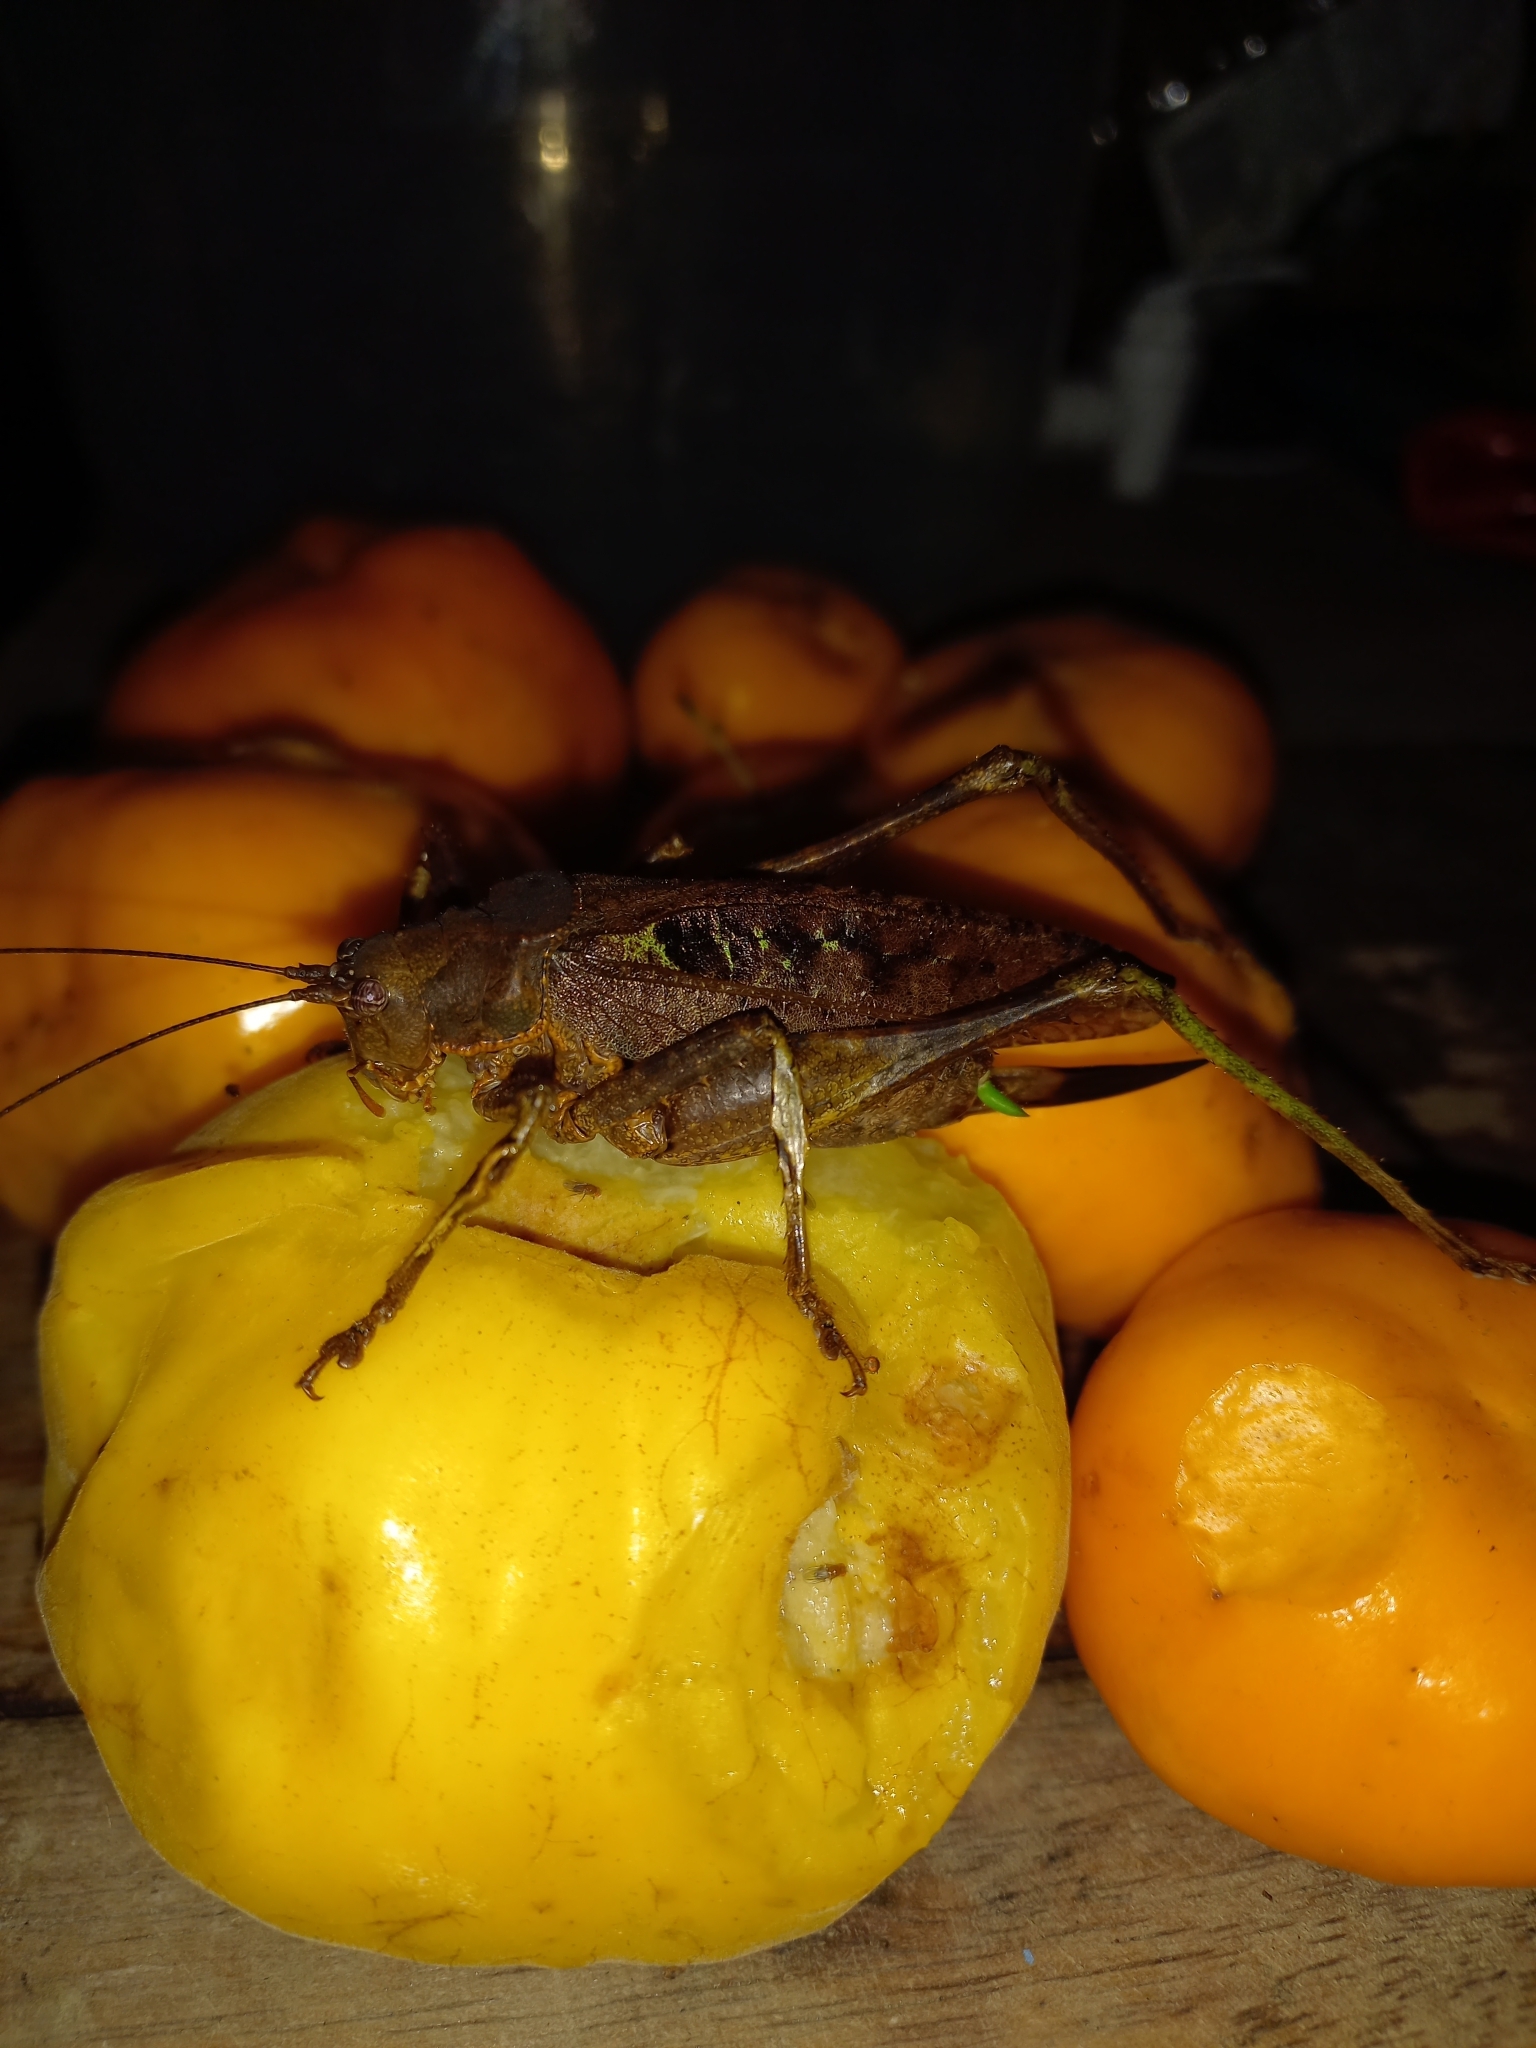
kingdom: Animalia
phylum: Arthropoda
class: Insecta
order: Orthoptera
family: Tettigoniidae
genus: Balboana
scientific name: Balboana tibialis
